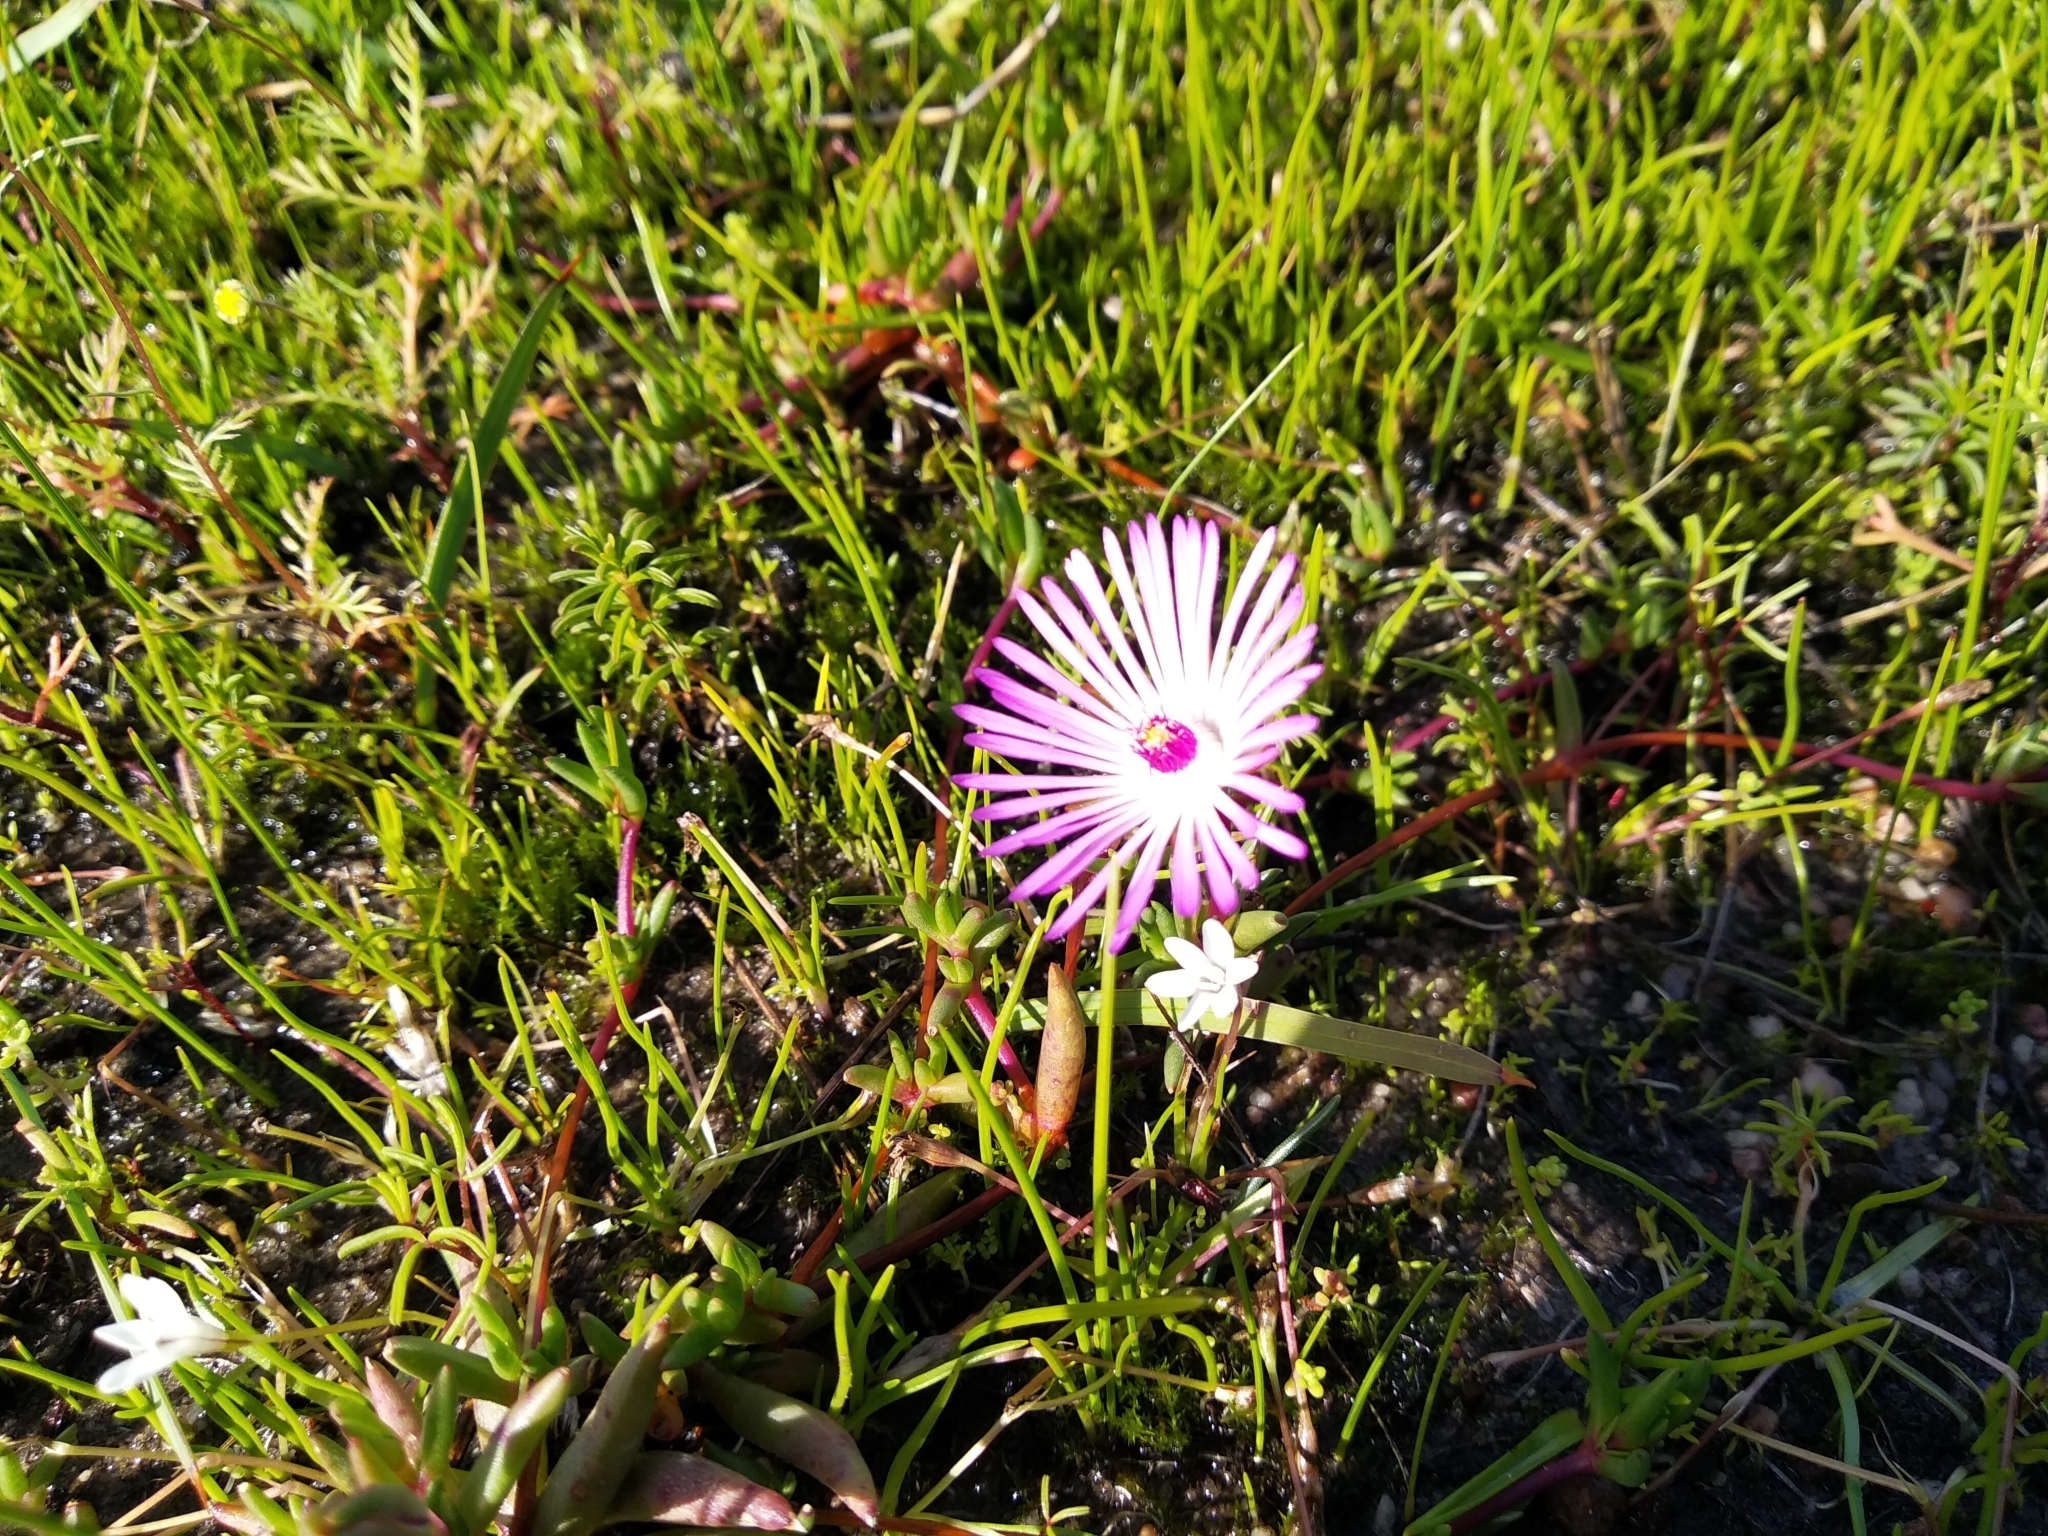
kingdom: Plantae
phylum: Tracheophyta
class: Magnoliopsida
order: Caryophyllales
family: Aizoaceae
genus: Lampranthus
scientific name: Lampranthus filicaulis
